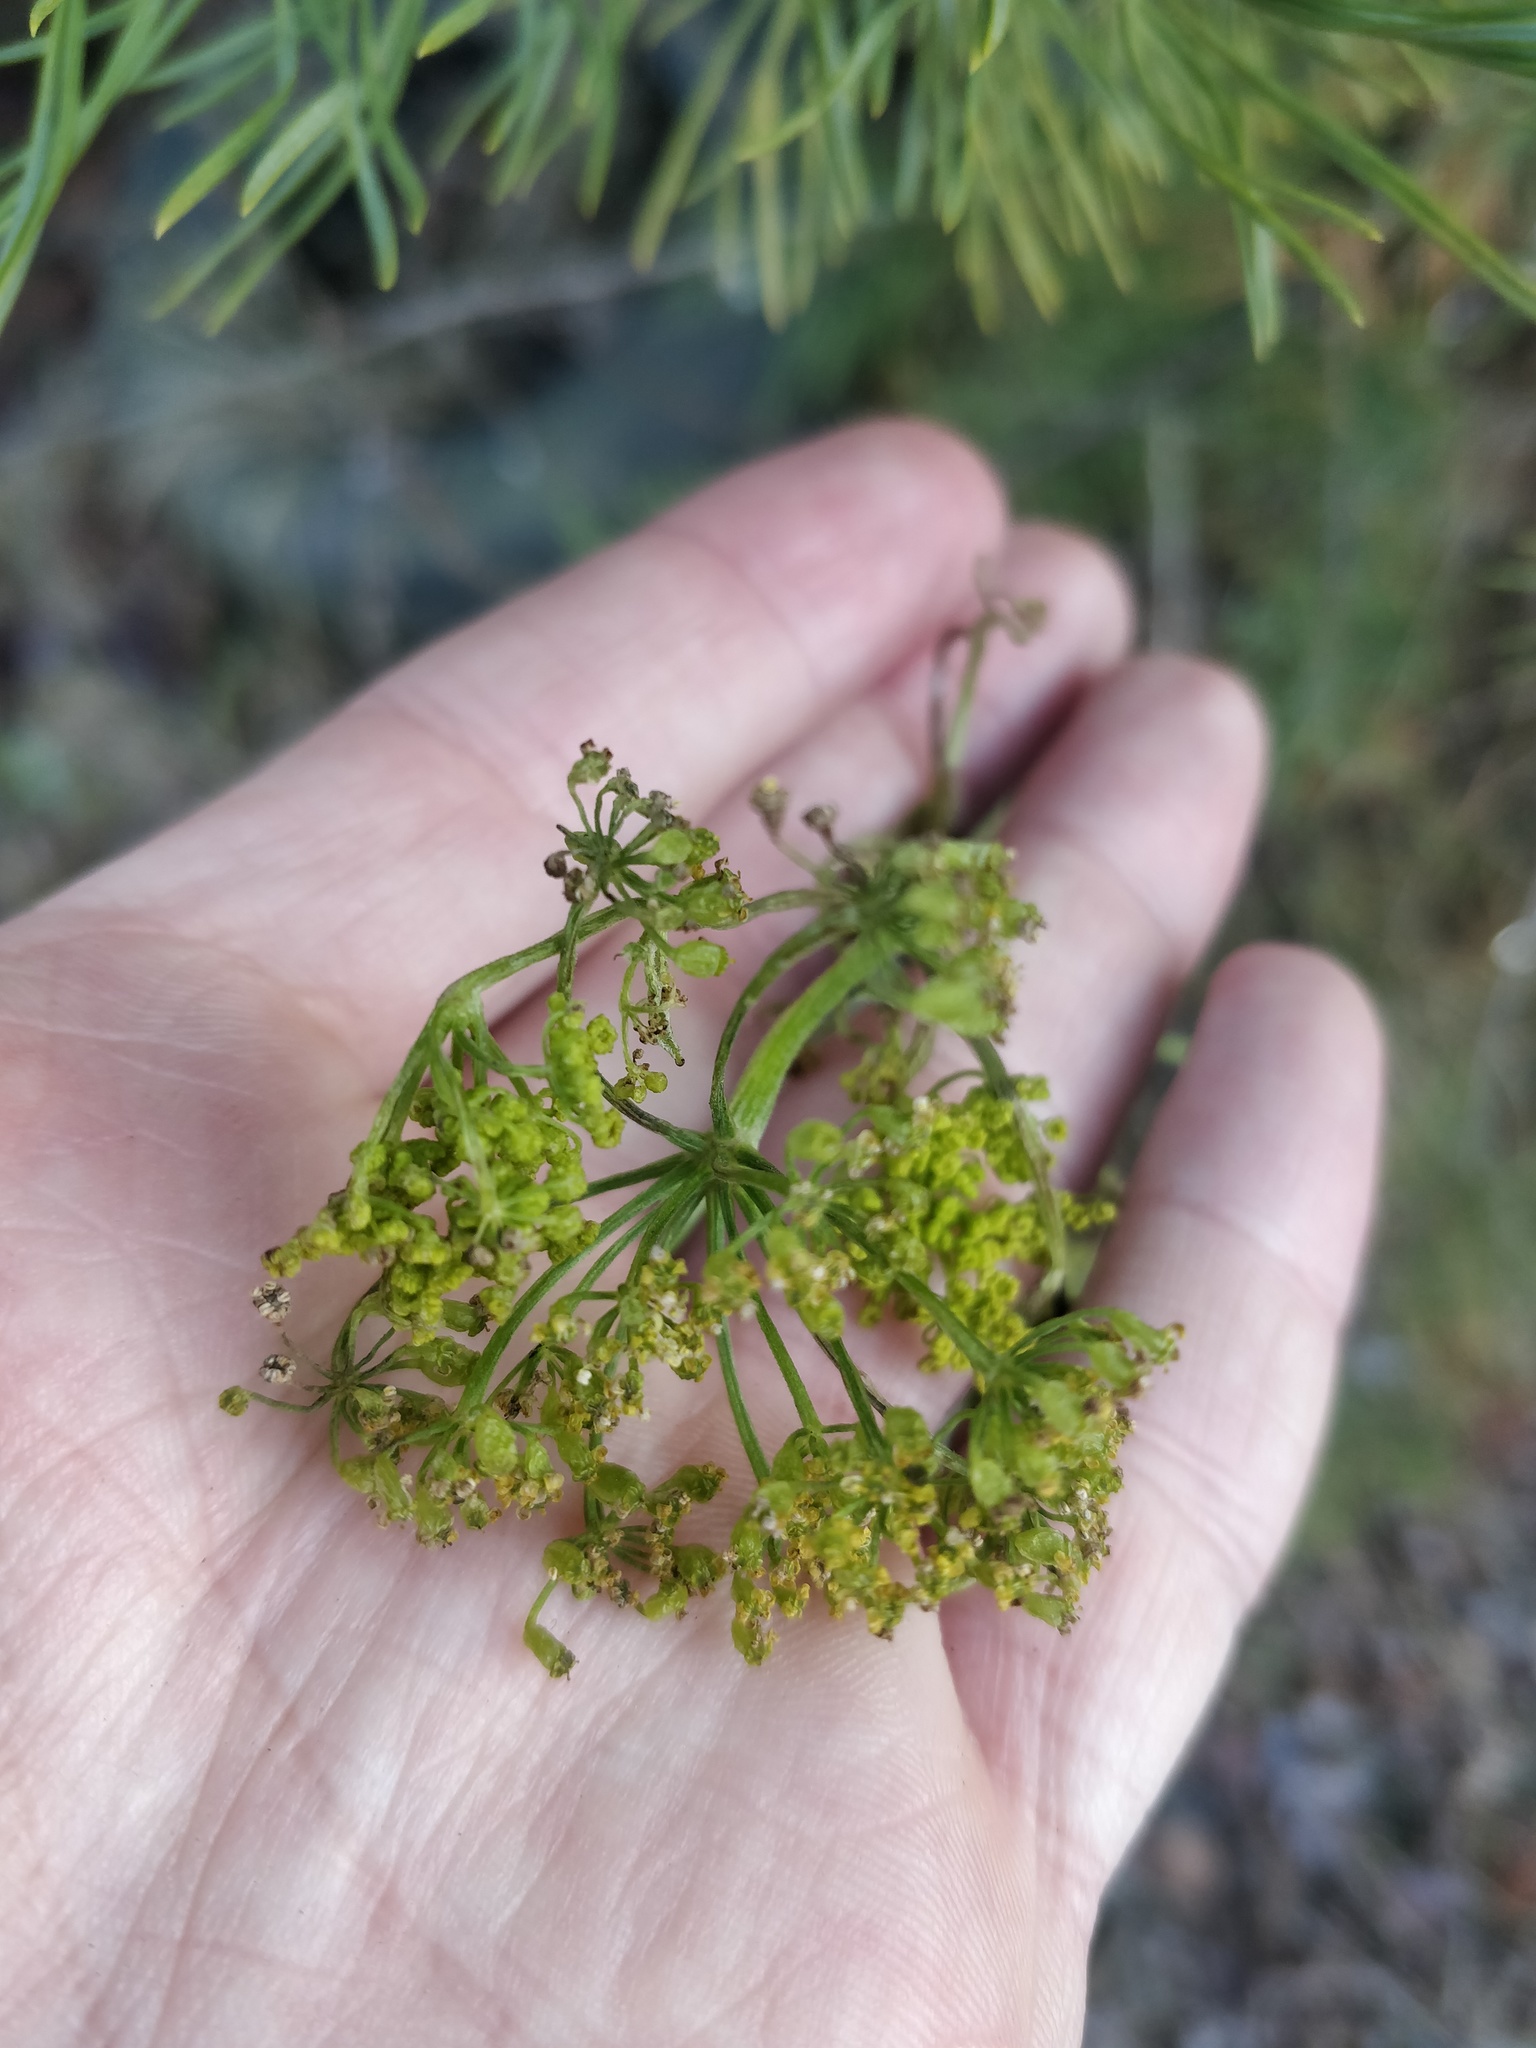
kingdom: Plantae
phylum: Tracheophyta
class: Magnoliopsida
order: Apiales
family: Apiaceae
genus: Pastinaca
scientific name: Pastinaca sativa
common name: Wild parsnip
